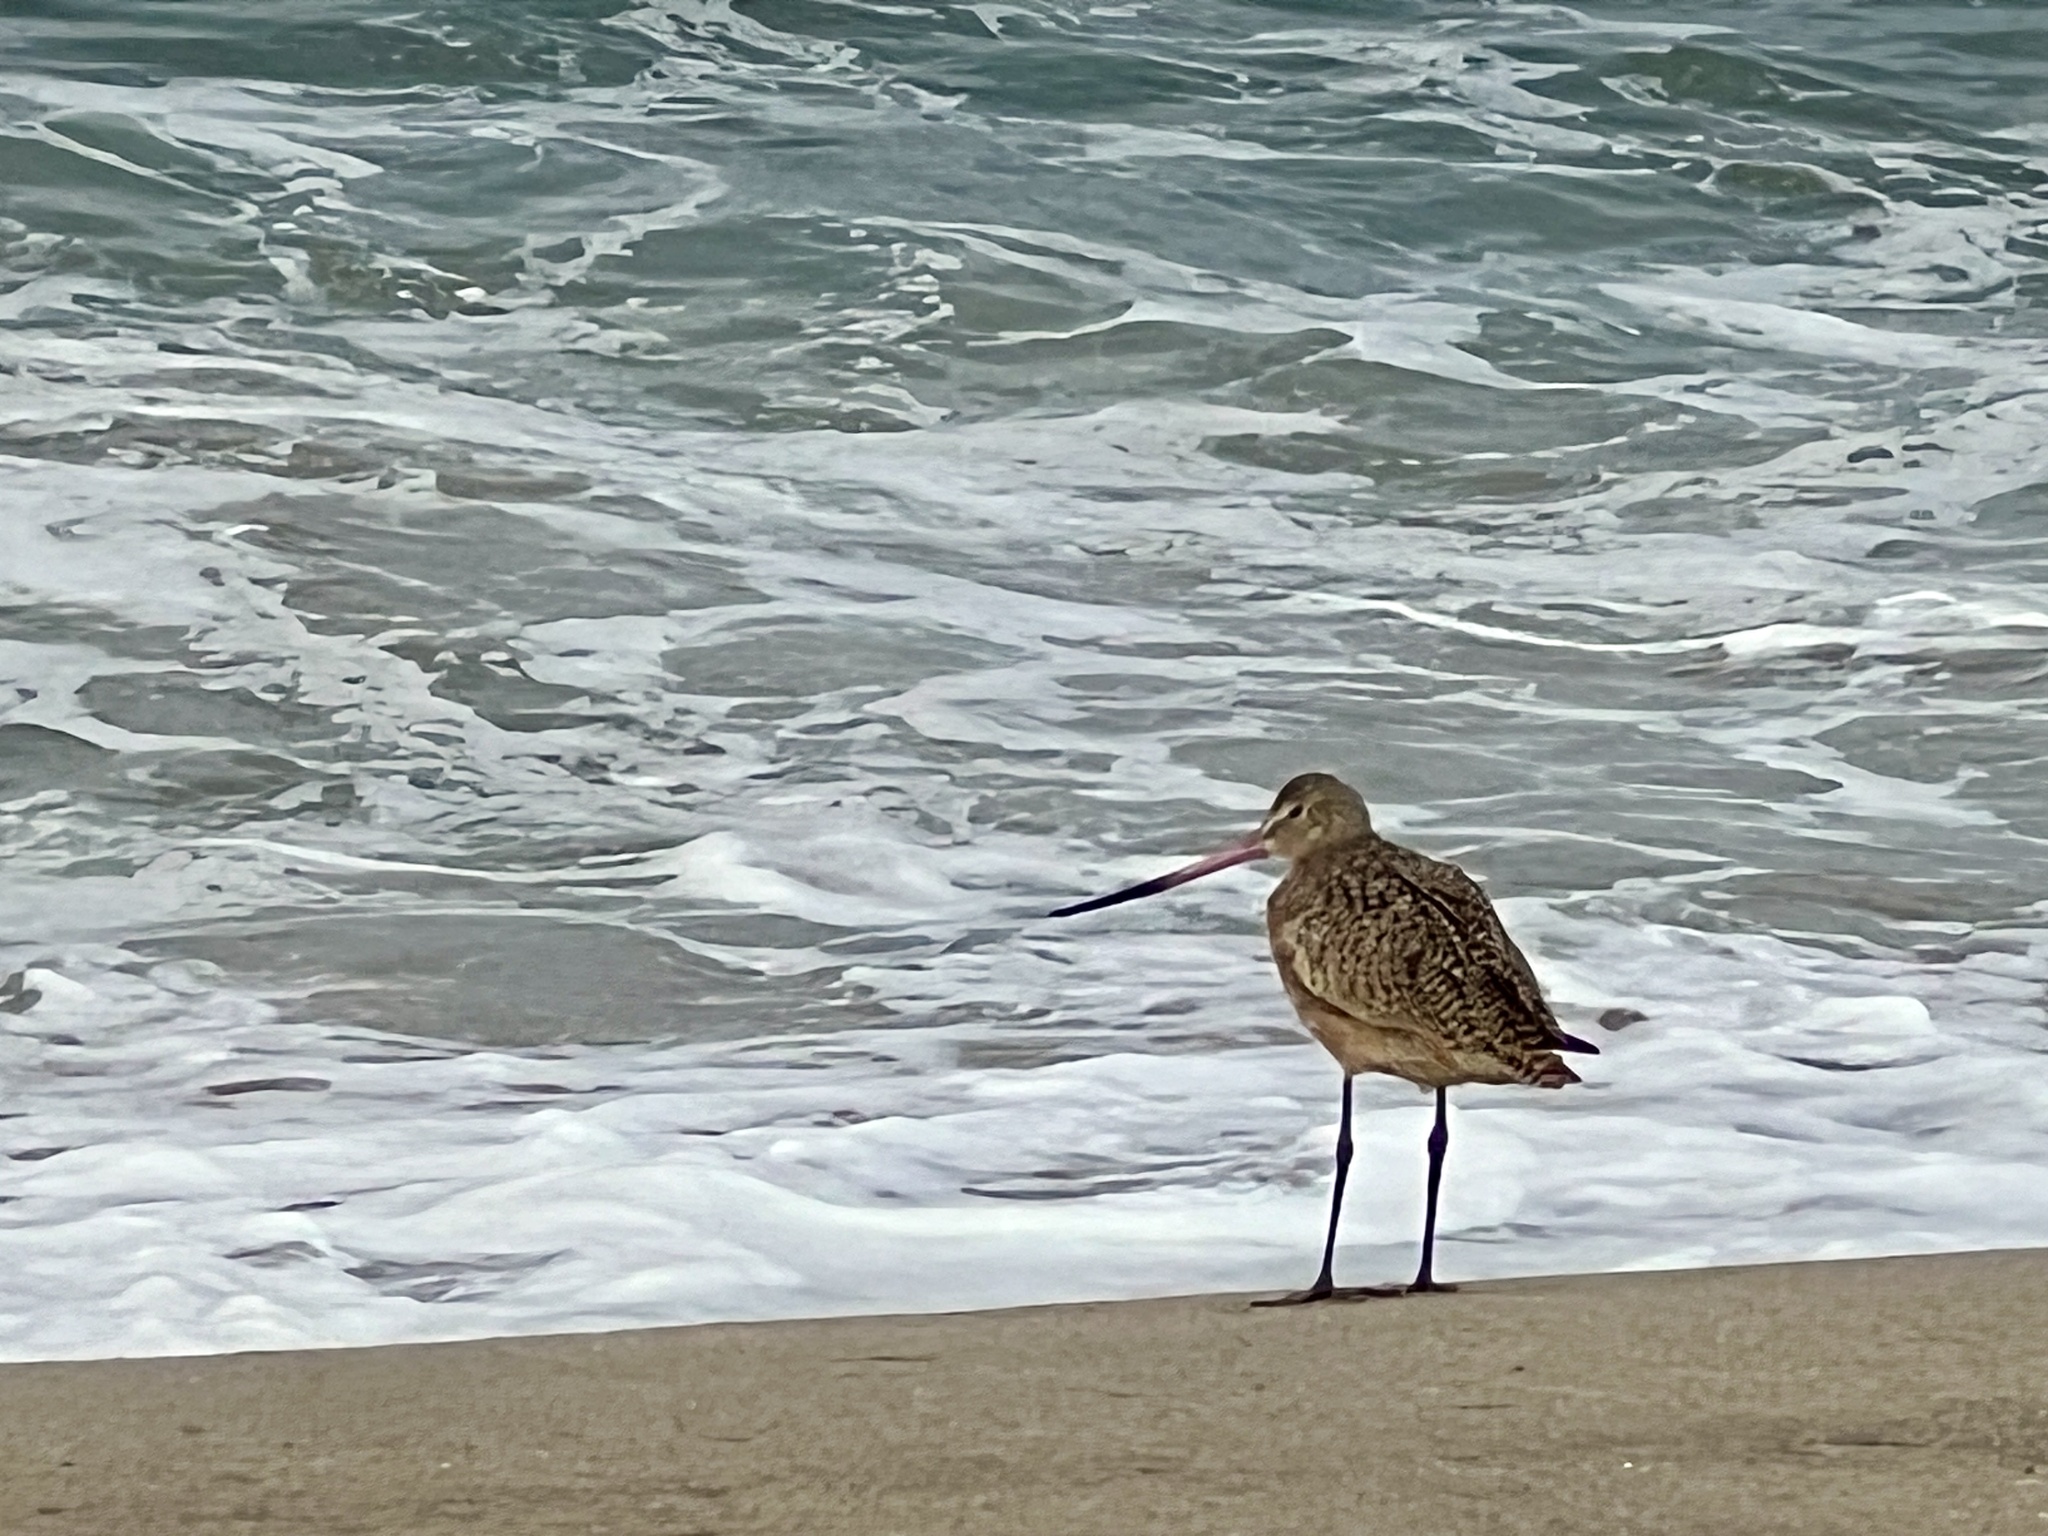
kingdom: Animalia
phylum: Chordata
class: Aves
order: Charadriiformes
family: Scolopacidae
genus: Limosa
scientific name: Limosa fedoa
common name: Marbled godwit
